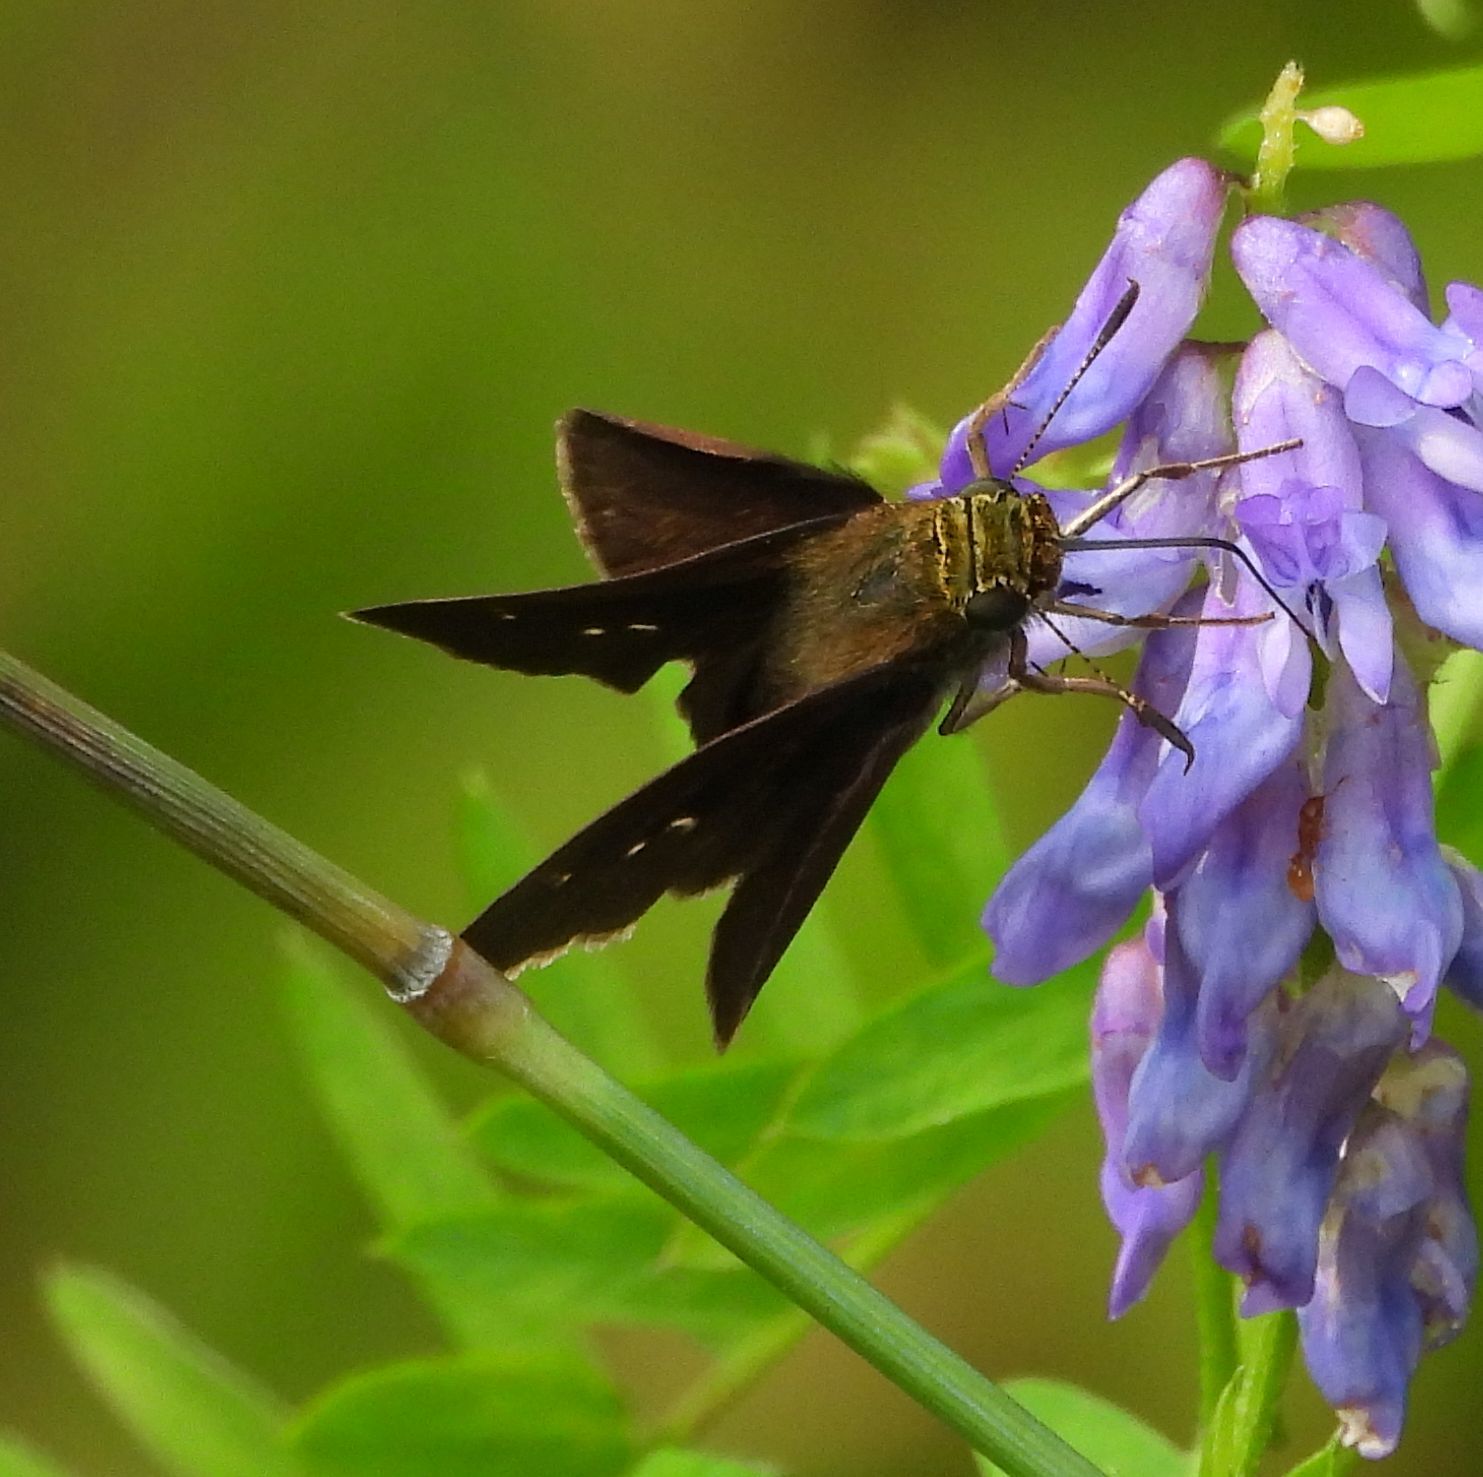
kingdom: Animalia
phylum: Arthropoda
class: Insecta
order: Lepidoptera
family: Hesperiidae
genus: Euphyes
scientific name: Euphyes vestris
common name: Dun skipper
